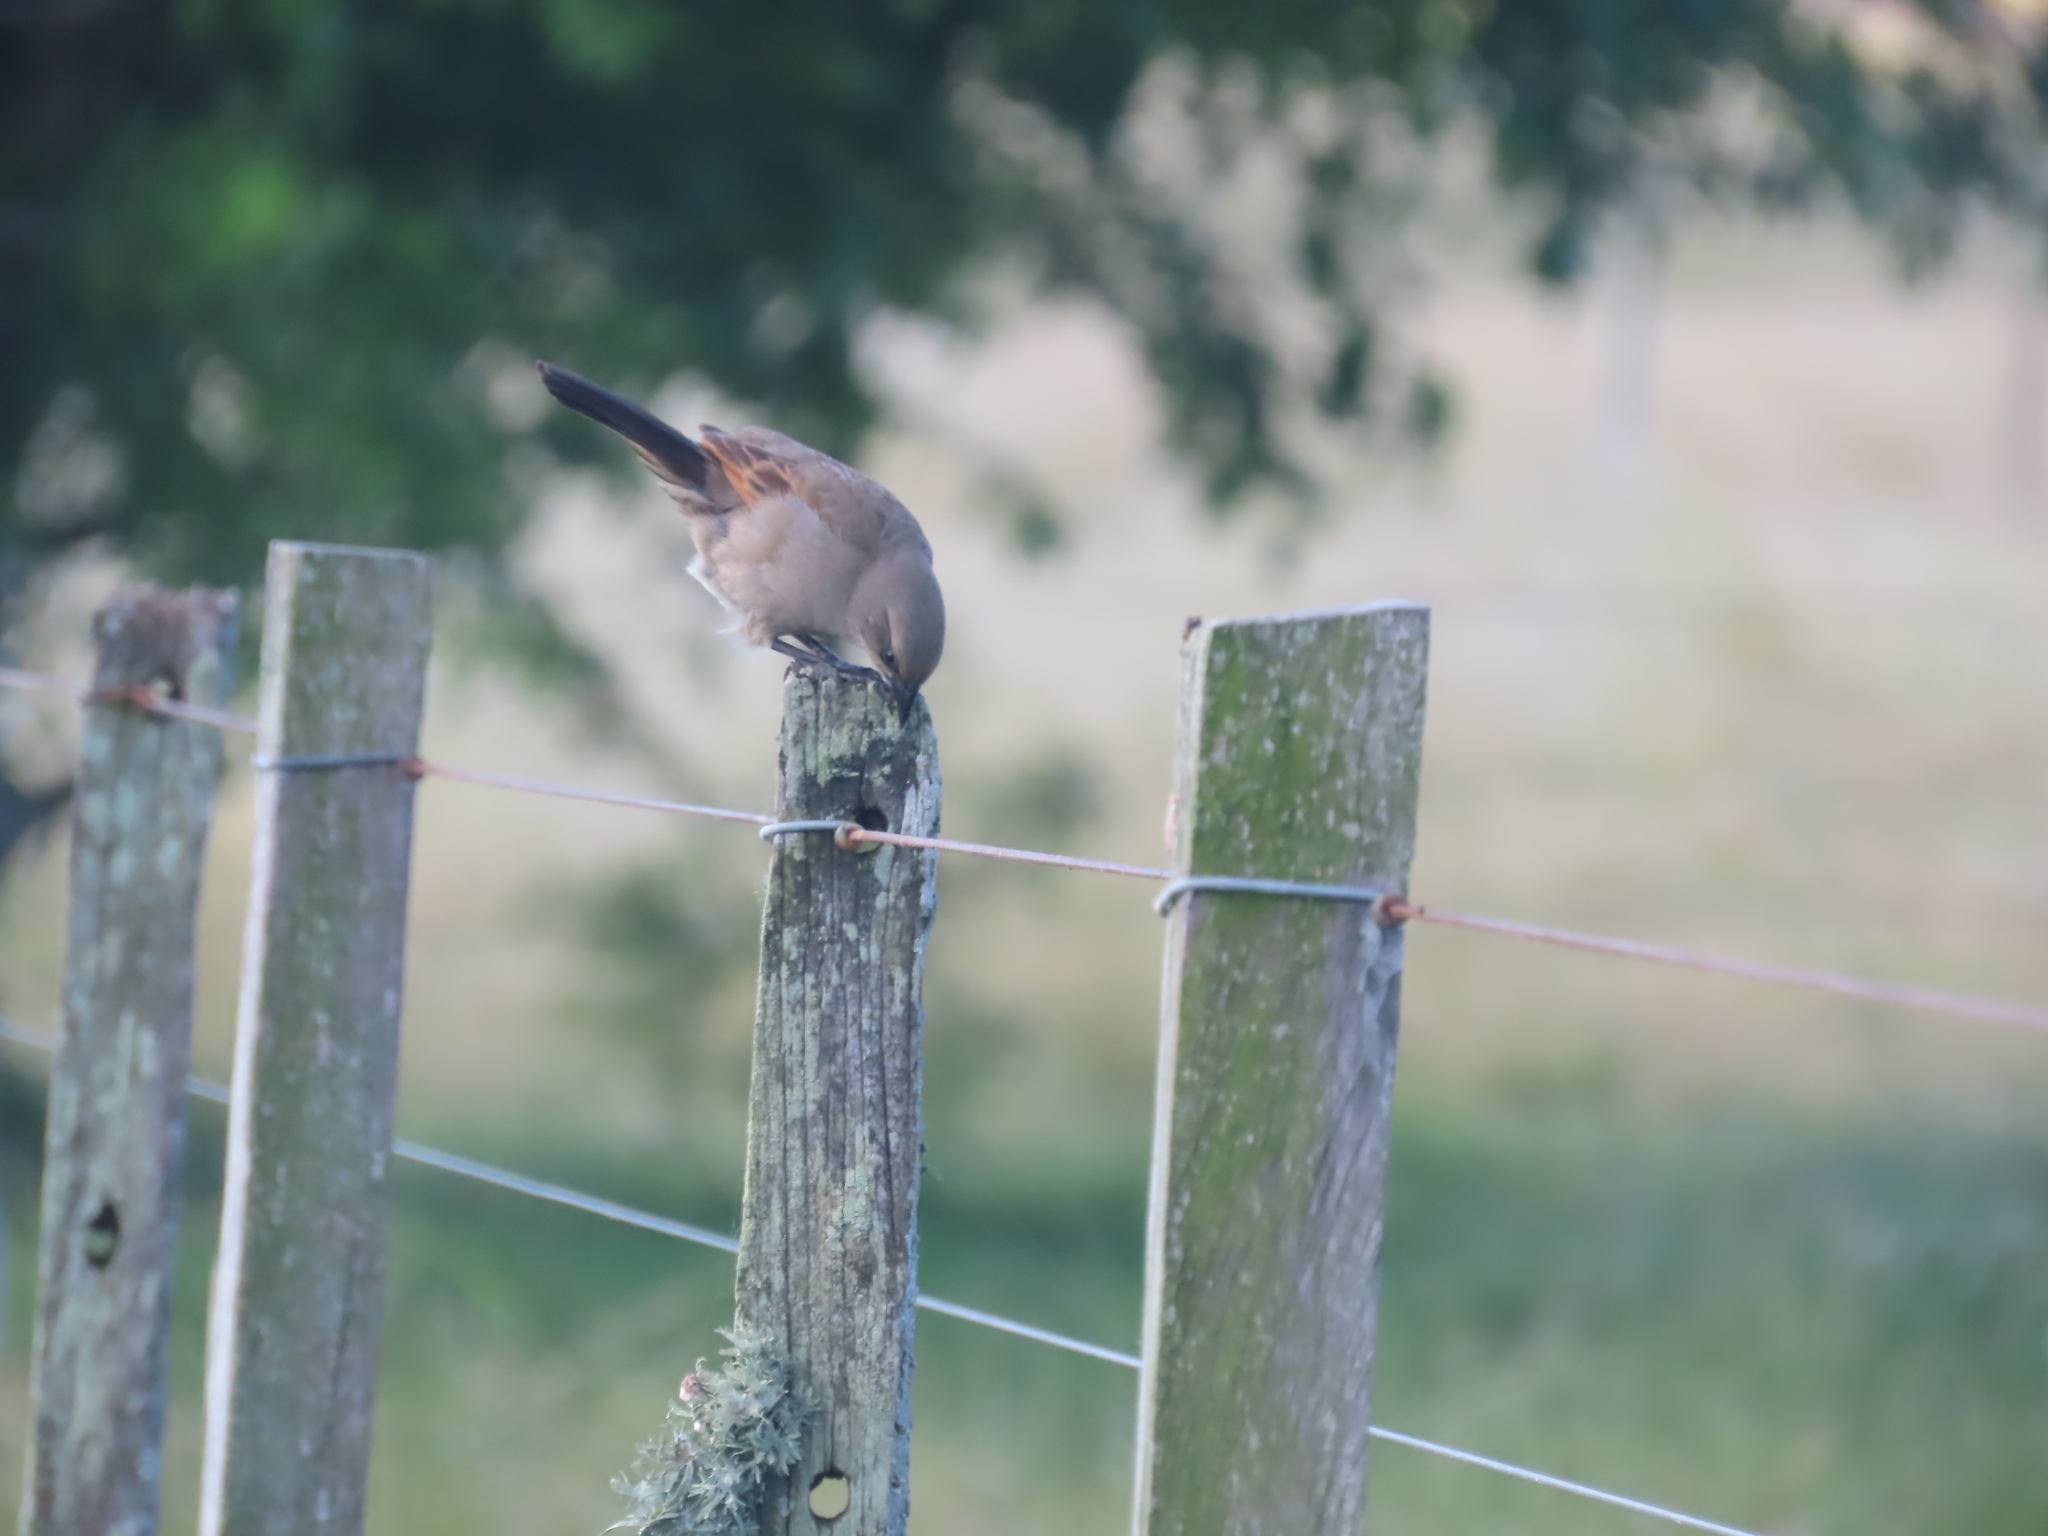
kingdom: Animalia
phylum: Chordata
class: Aves
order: Passeriformes
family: Icteridae
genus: Agelaioides
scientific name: Agelaioides badius
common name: Baywing
